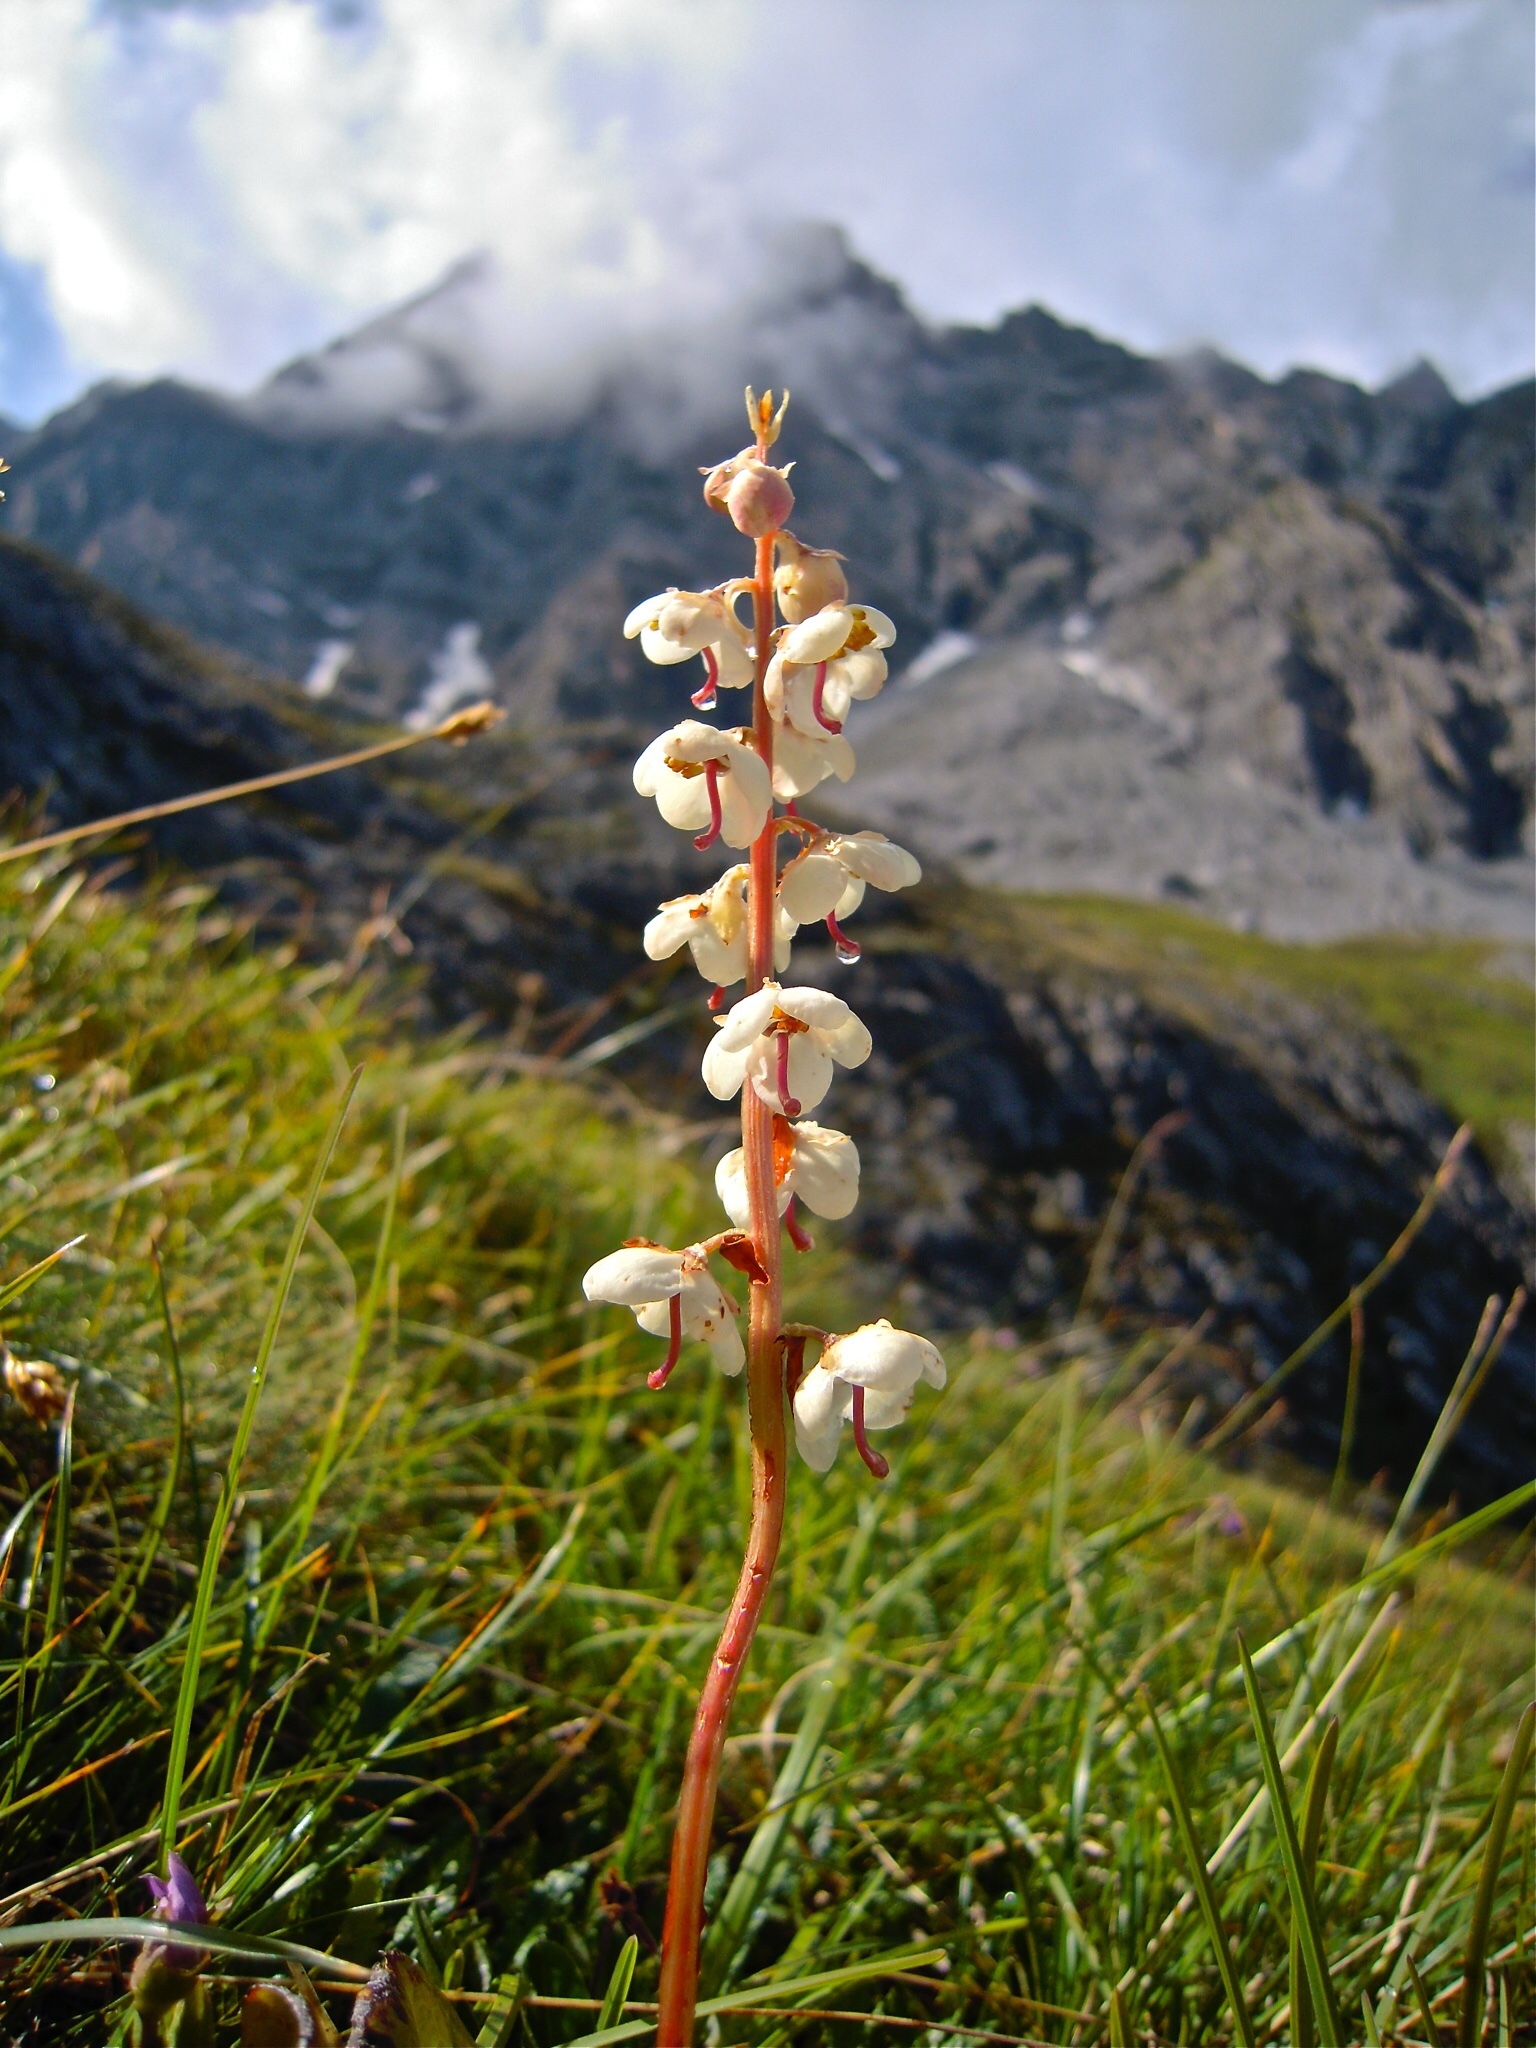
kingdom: Plantae
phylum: Tracheophyta
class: Magnoliopsida
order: Ericales
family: Ericaceae
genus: Pyrola
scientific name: Pyrola rotundifolia
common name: Round-leaved wintergreen
